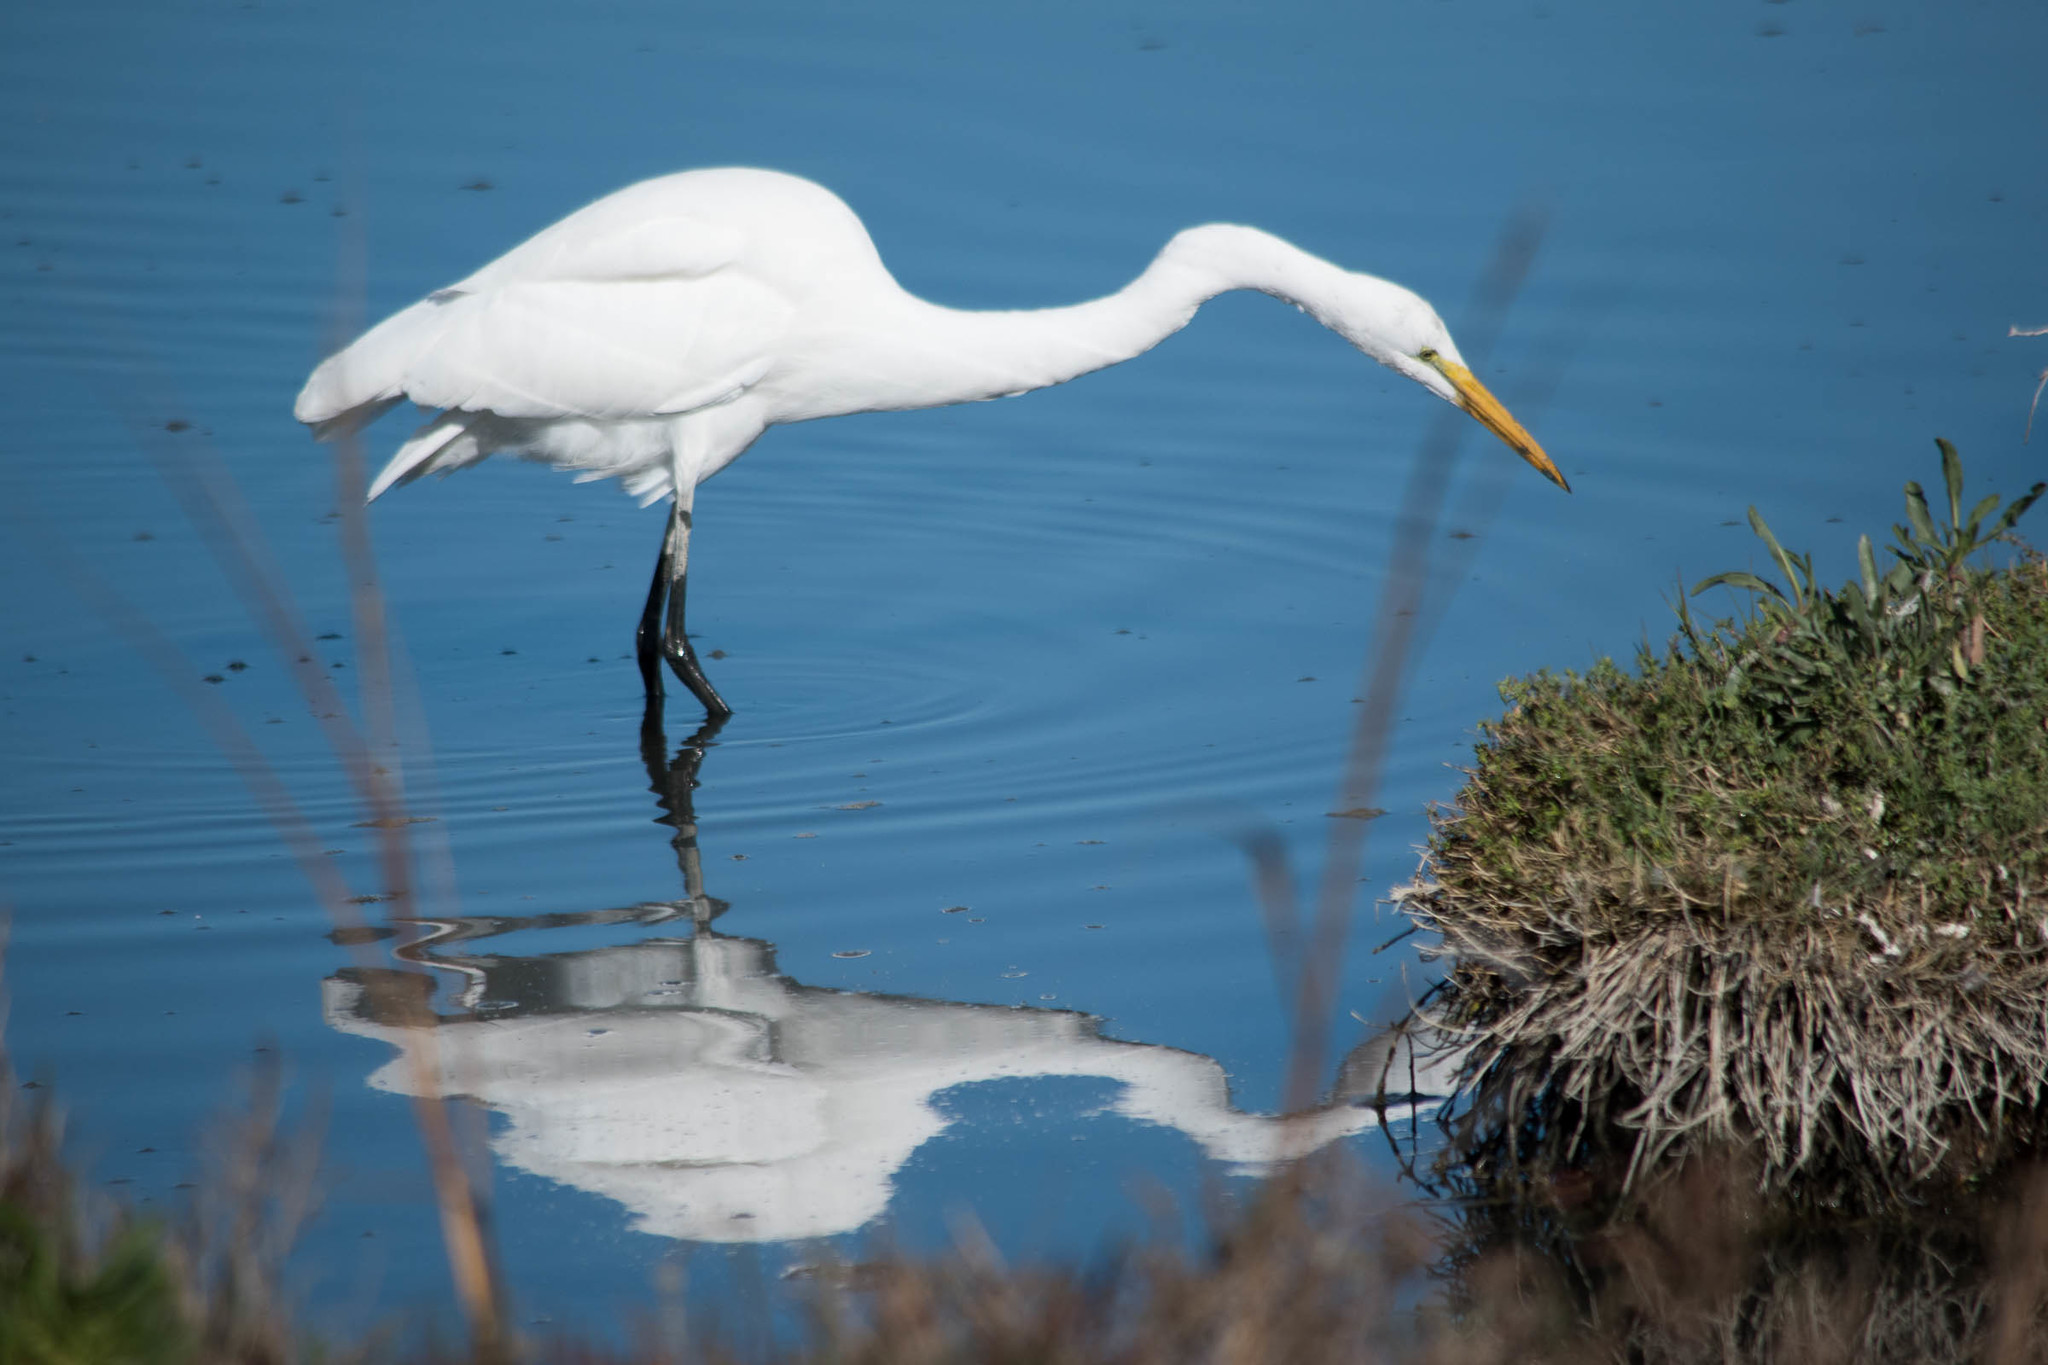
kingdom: Animalia
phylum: Chordata
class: Aves
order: Pelecaniformes
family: Ardeidae
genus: Ardea
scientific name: Ardea alba
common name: Great egret
